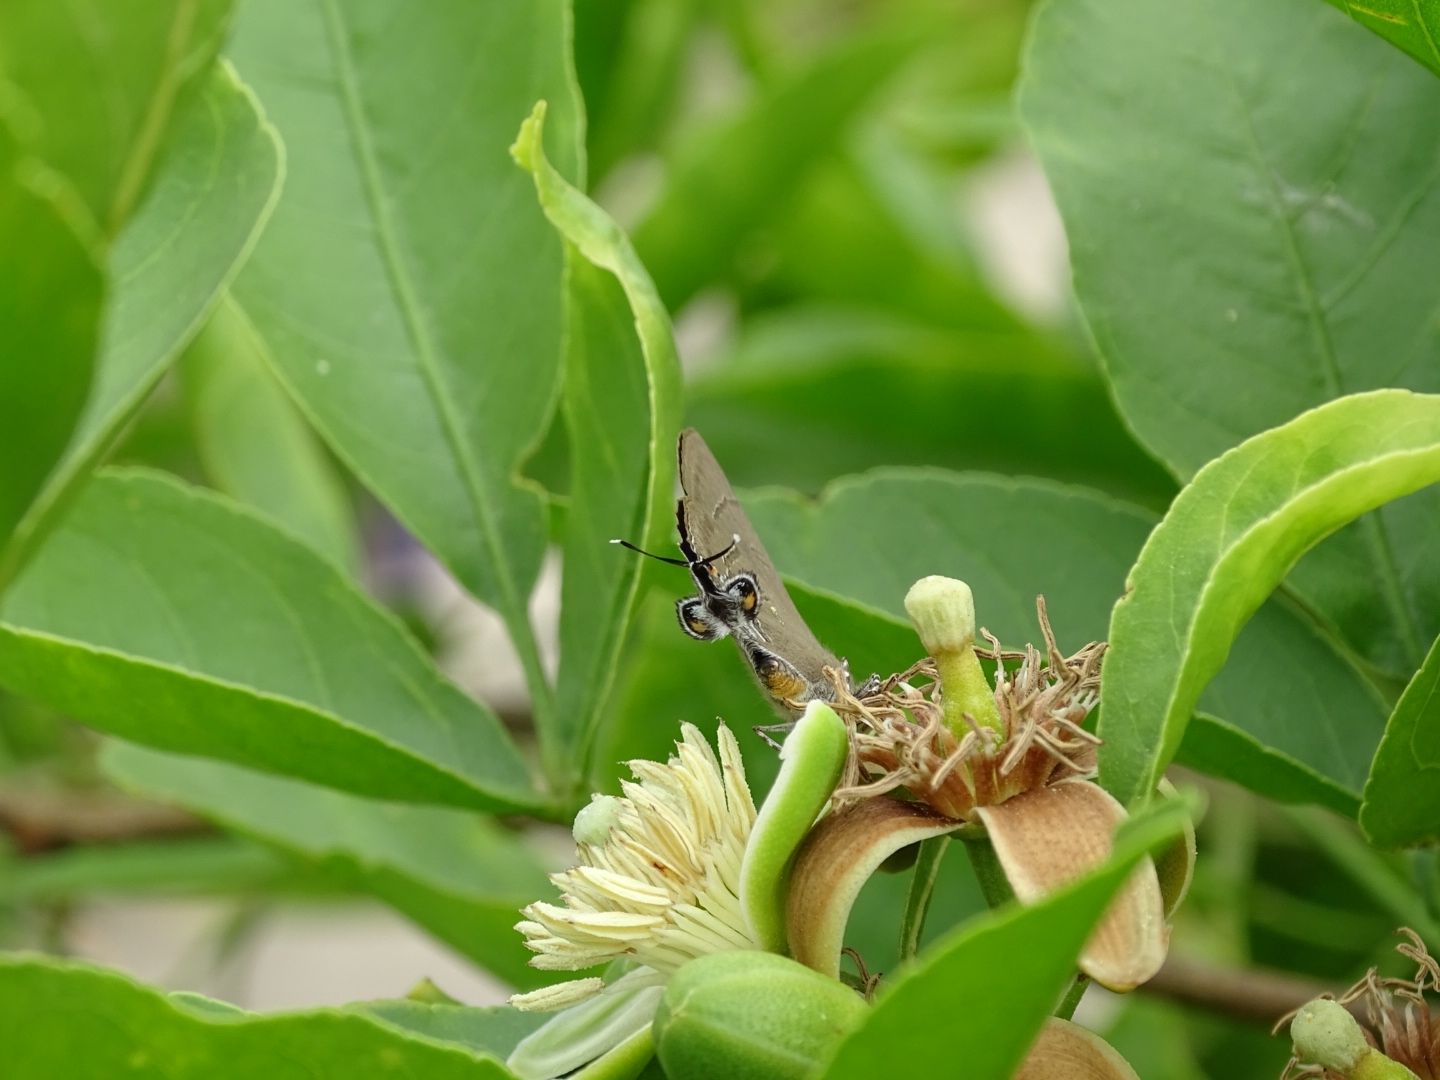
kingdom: Animalia
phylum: Arthropoda
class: Insecta
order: Lepidoptera
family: Lycaenidae
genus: Rapala
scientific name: Rapala manea
